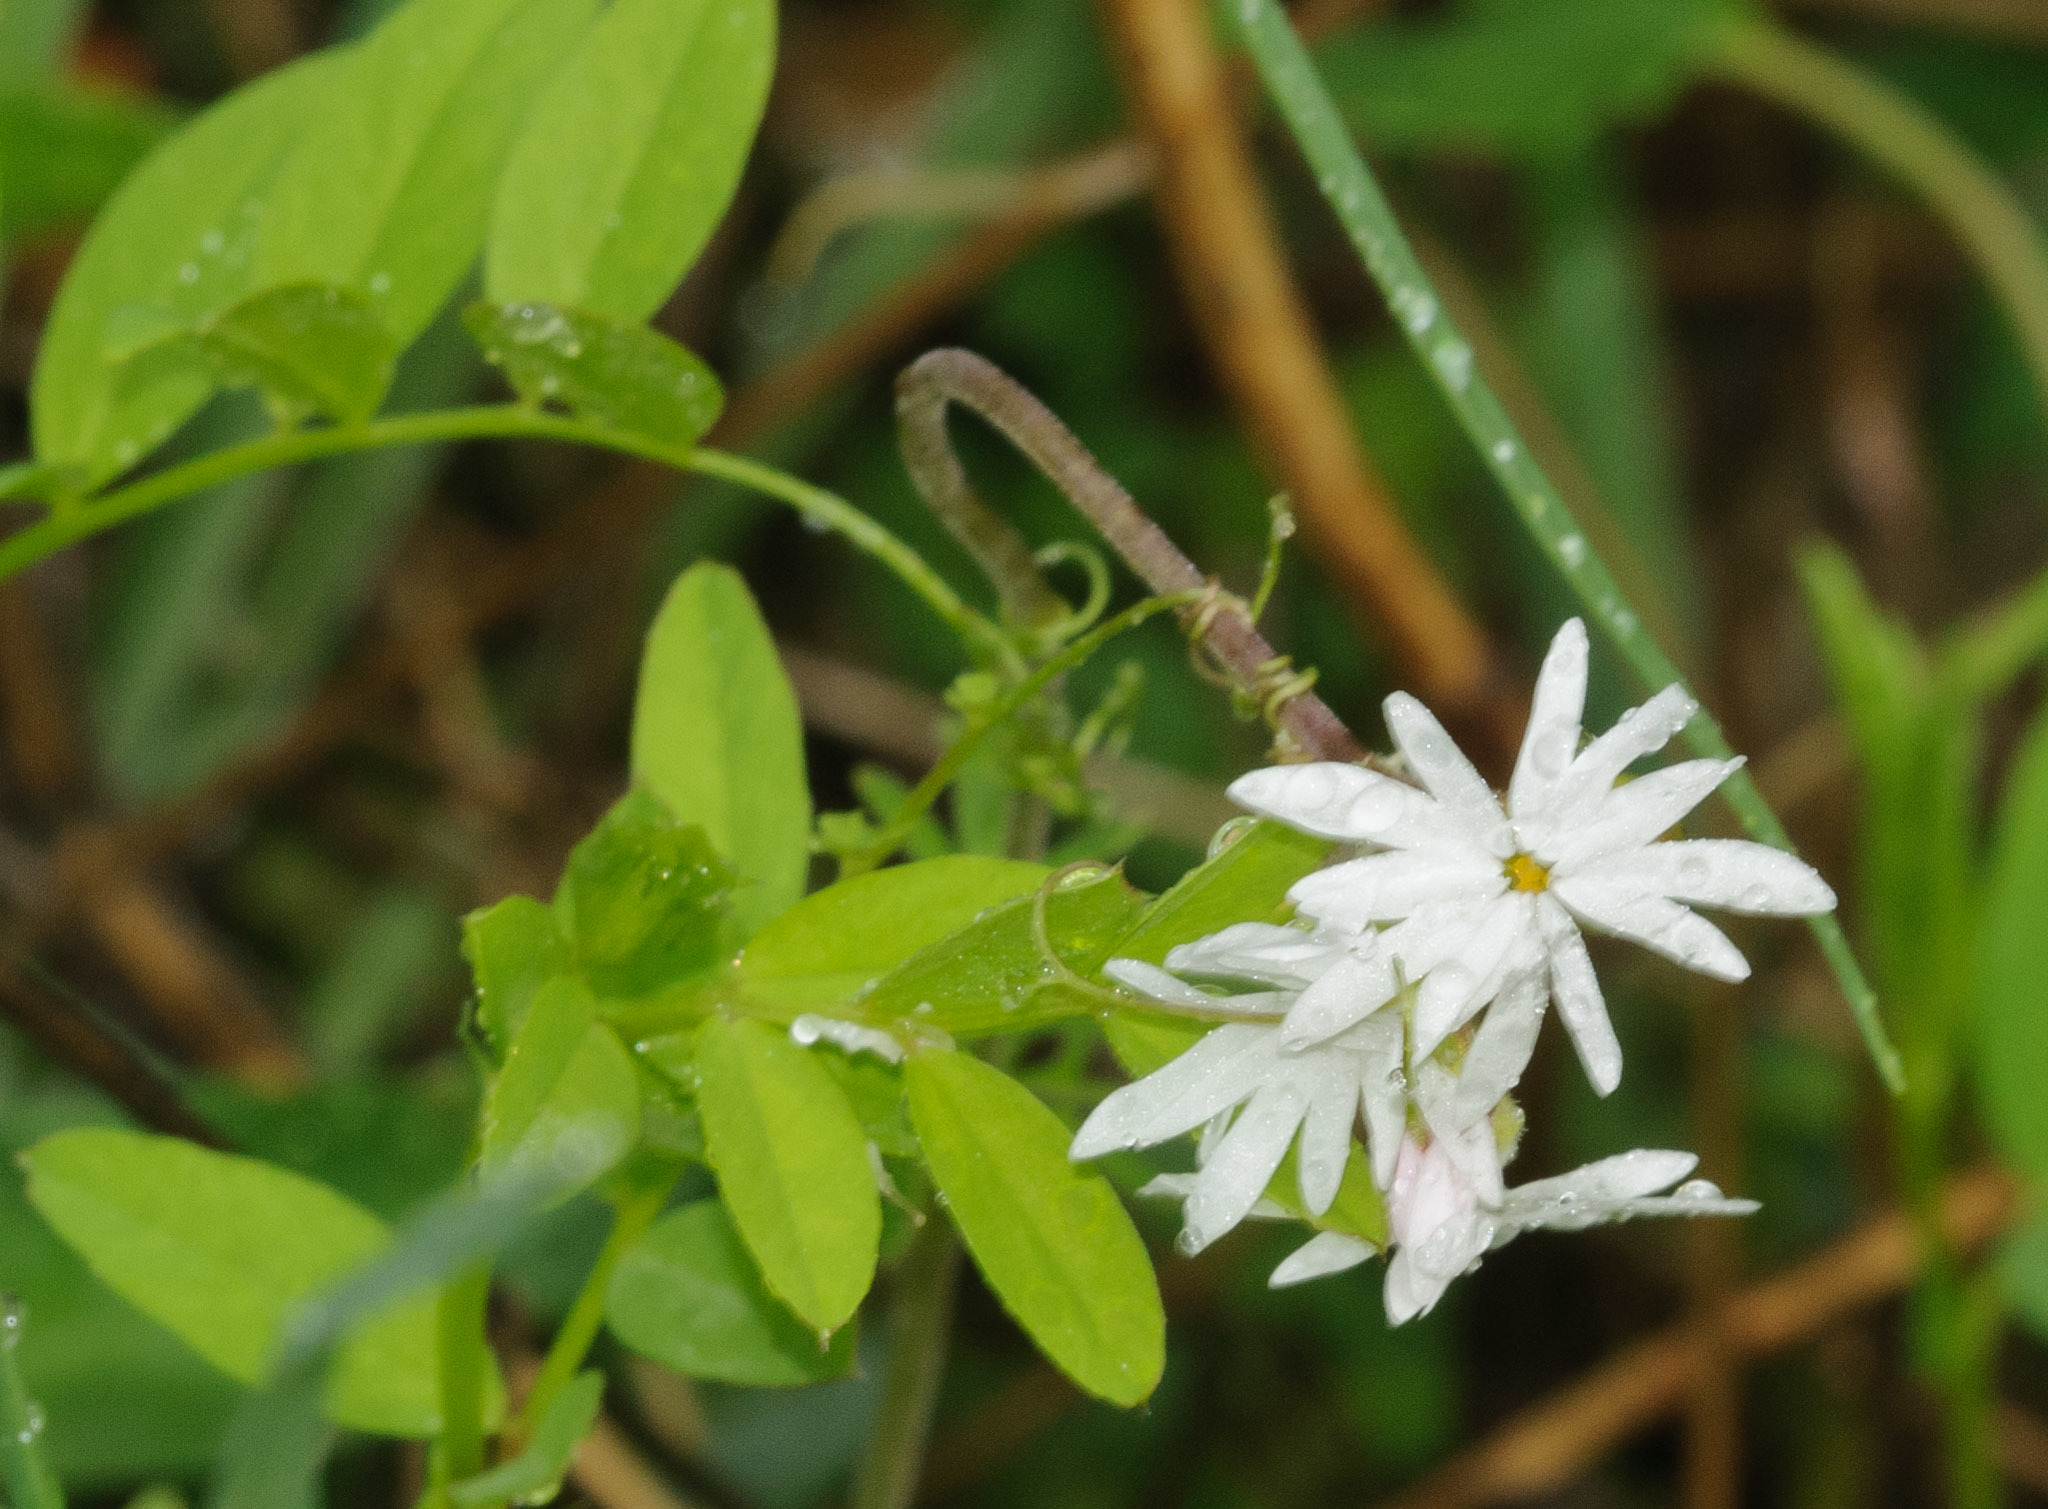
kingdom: Plantae
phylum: Tracheophyta
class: Magnoliopsida
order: Saxifragales
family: Saxifragaceae
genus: Lithophragma
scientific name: Lithophragma parviflorum
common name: Small-flowered fringe-cup
